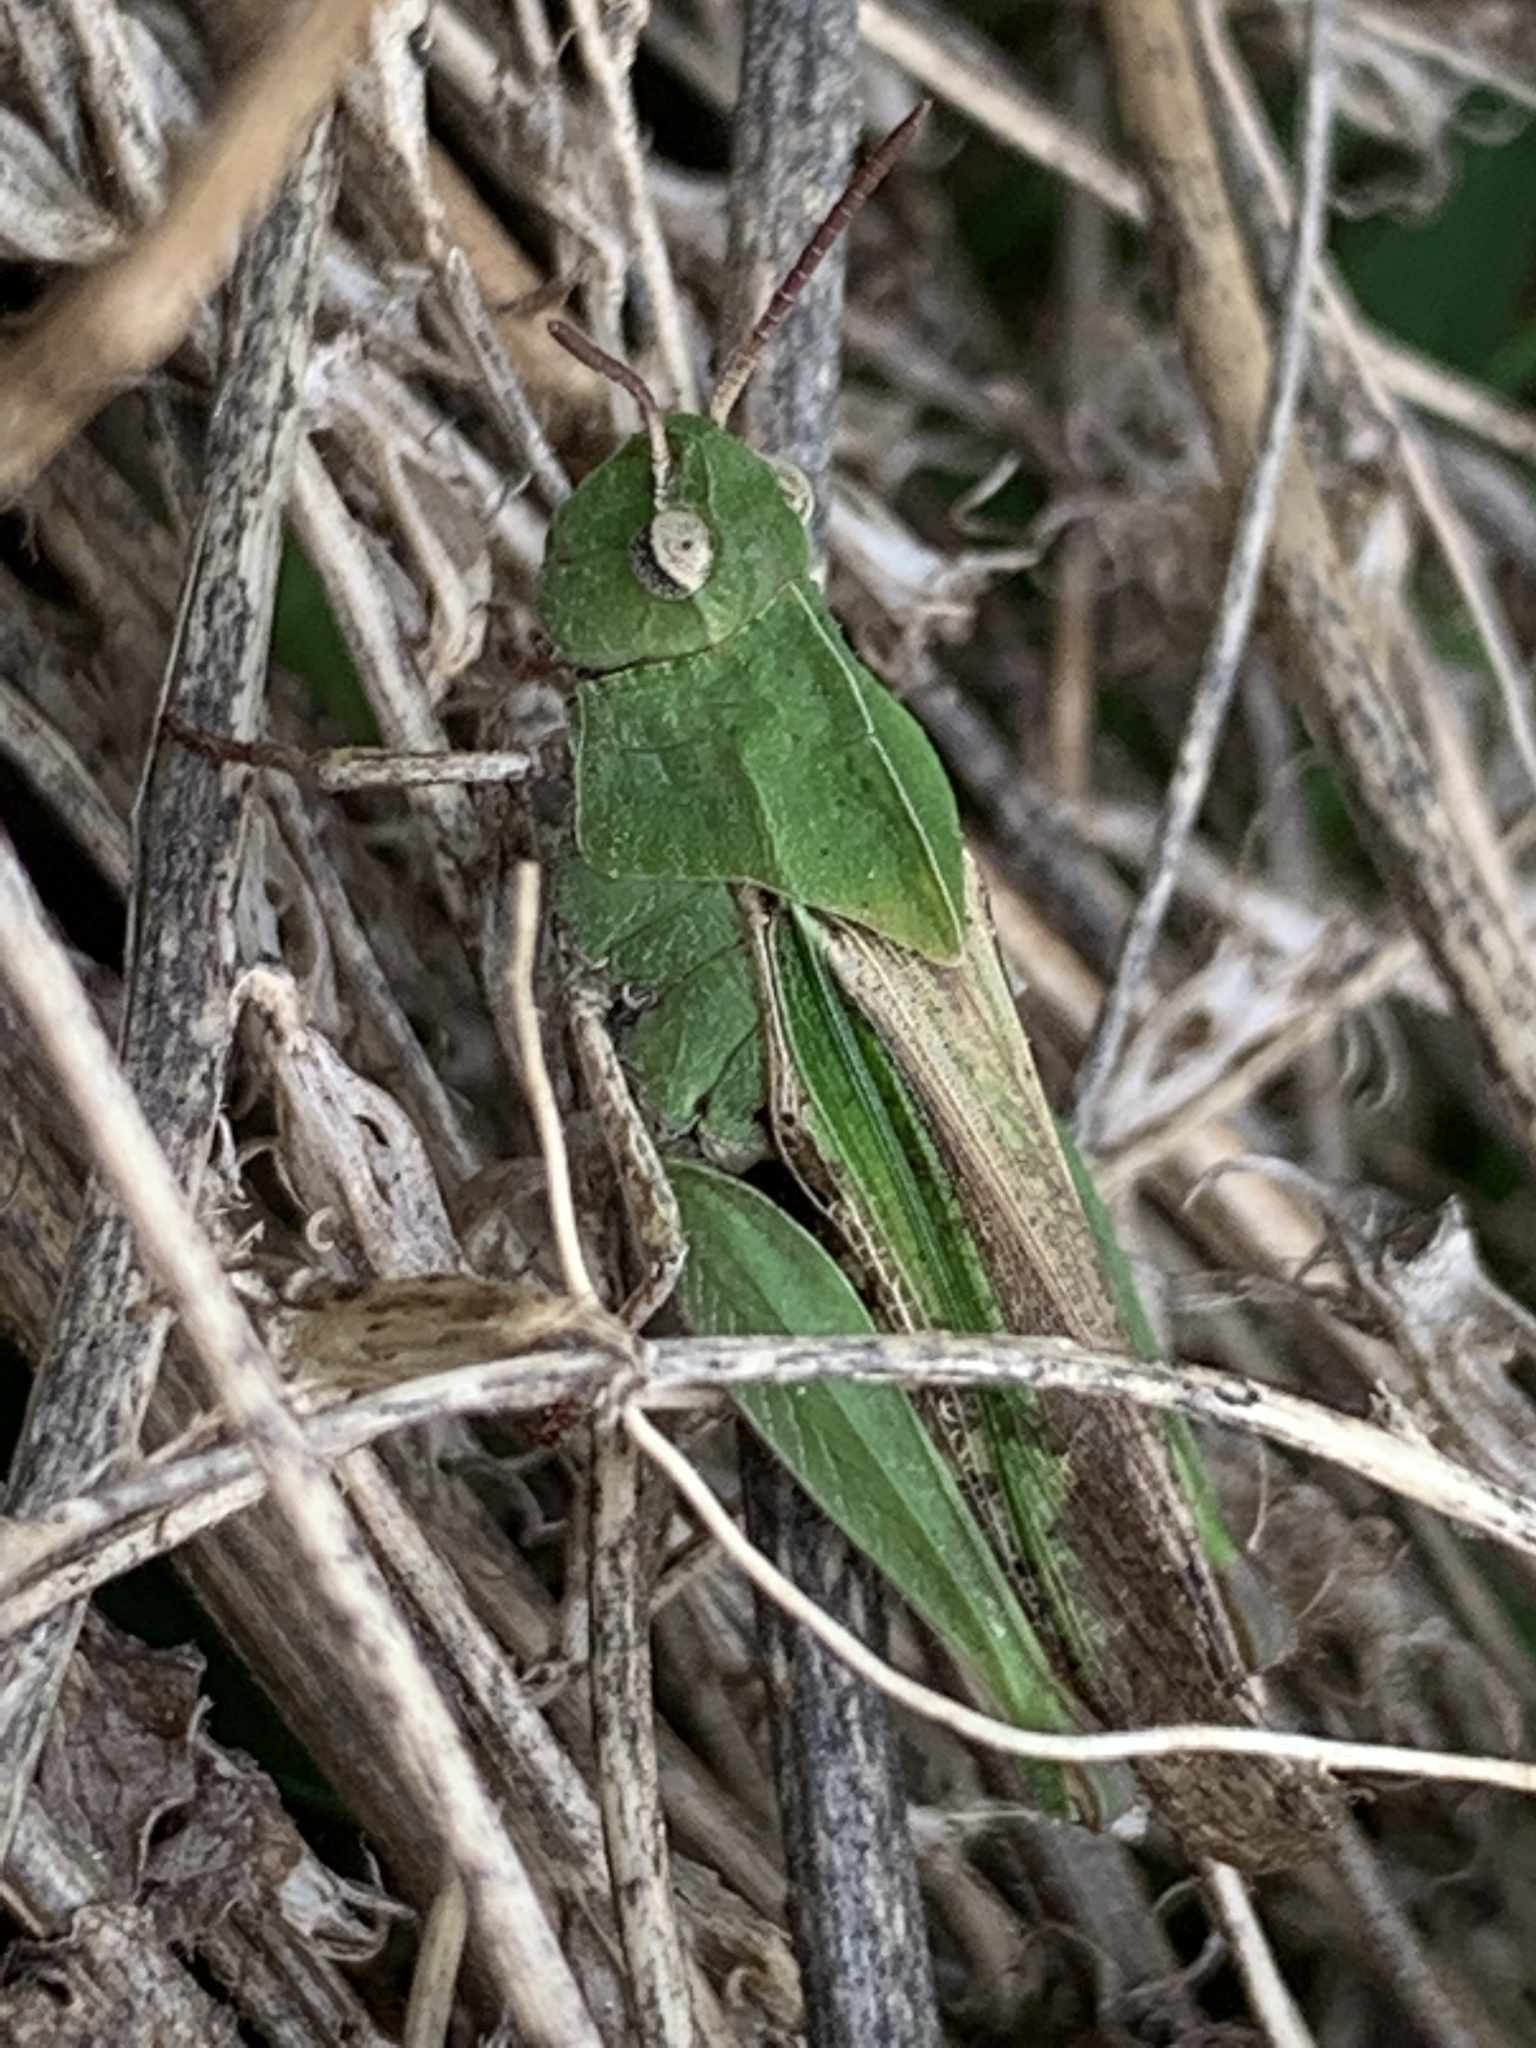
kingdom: Animalia
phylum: Arthropoda
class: Insecta
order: Orthoptera
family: Acrididae
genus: Chortophaga
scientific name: Chortophaga viridifasciata
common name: Green-striped grasshopper
